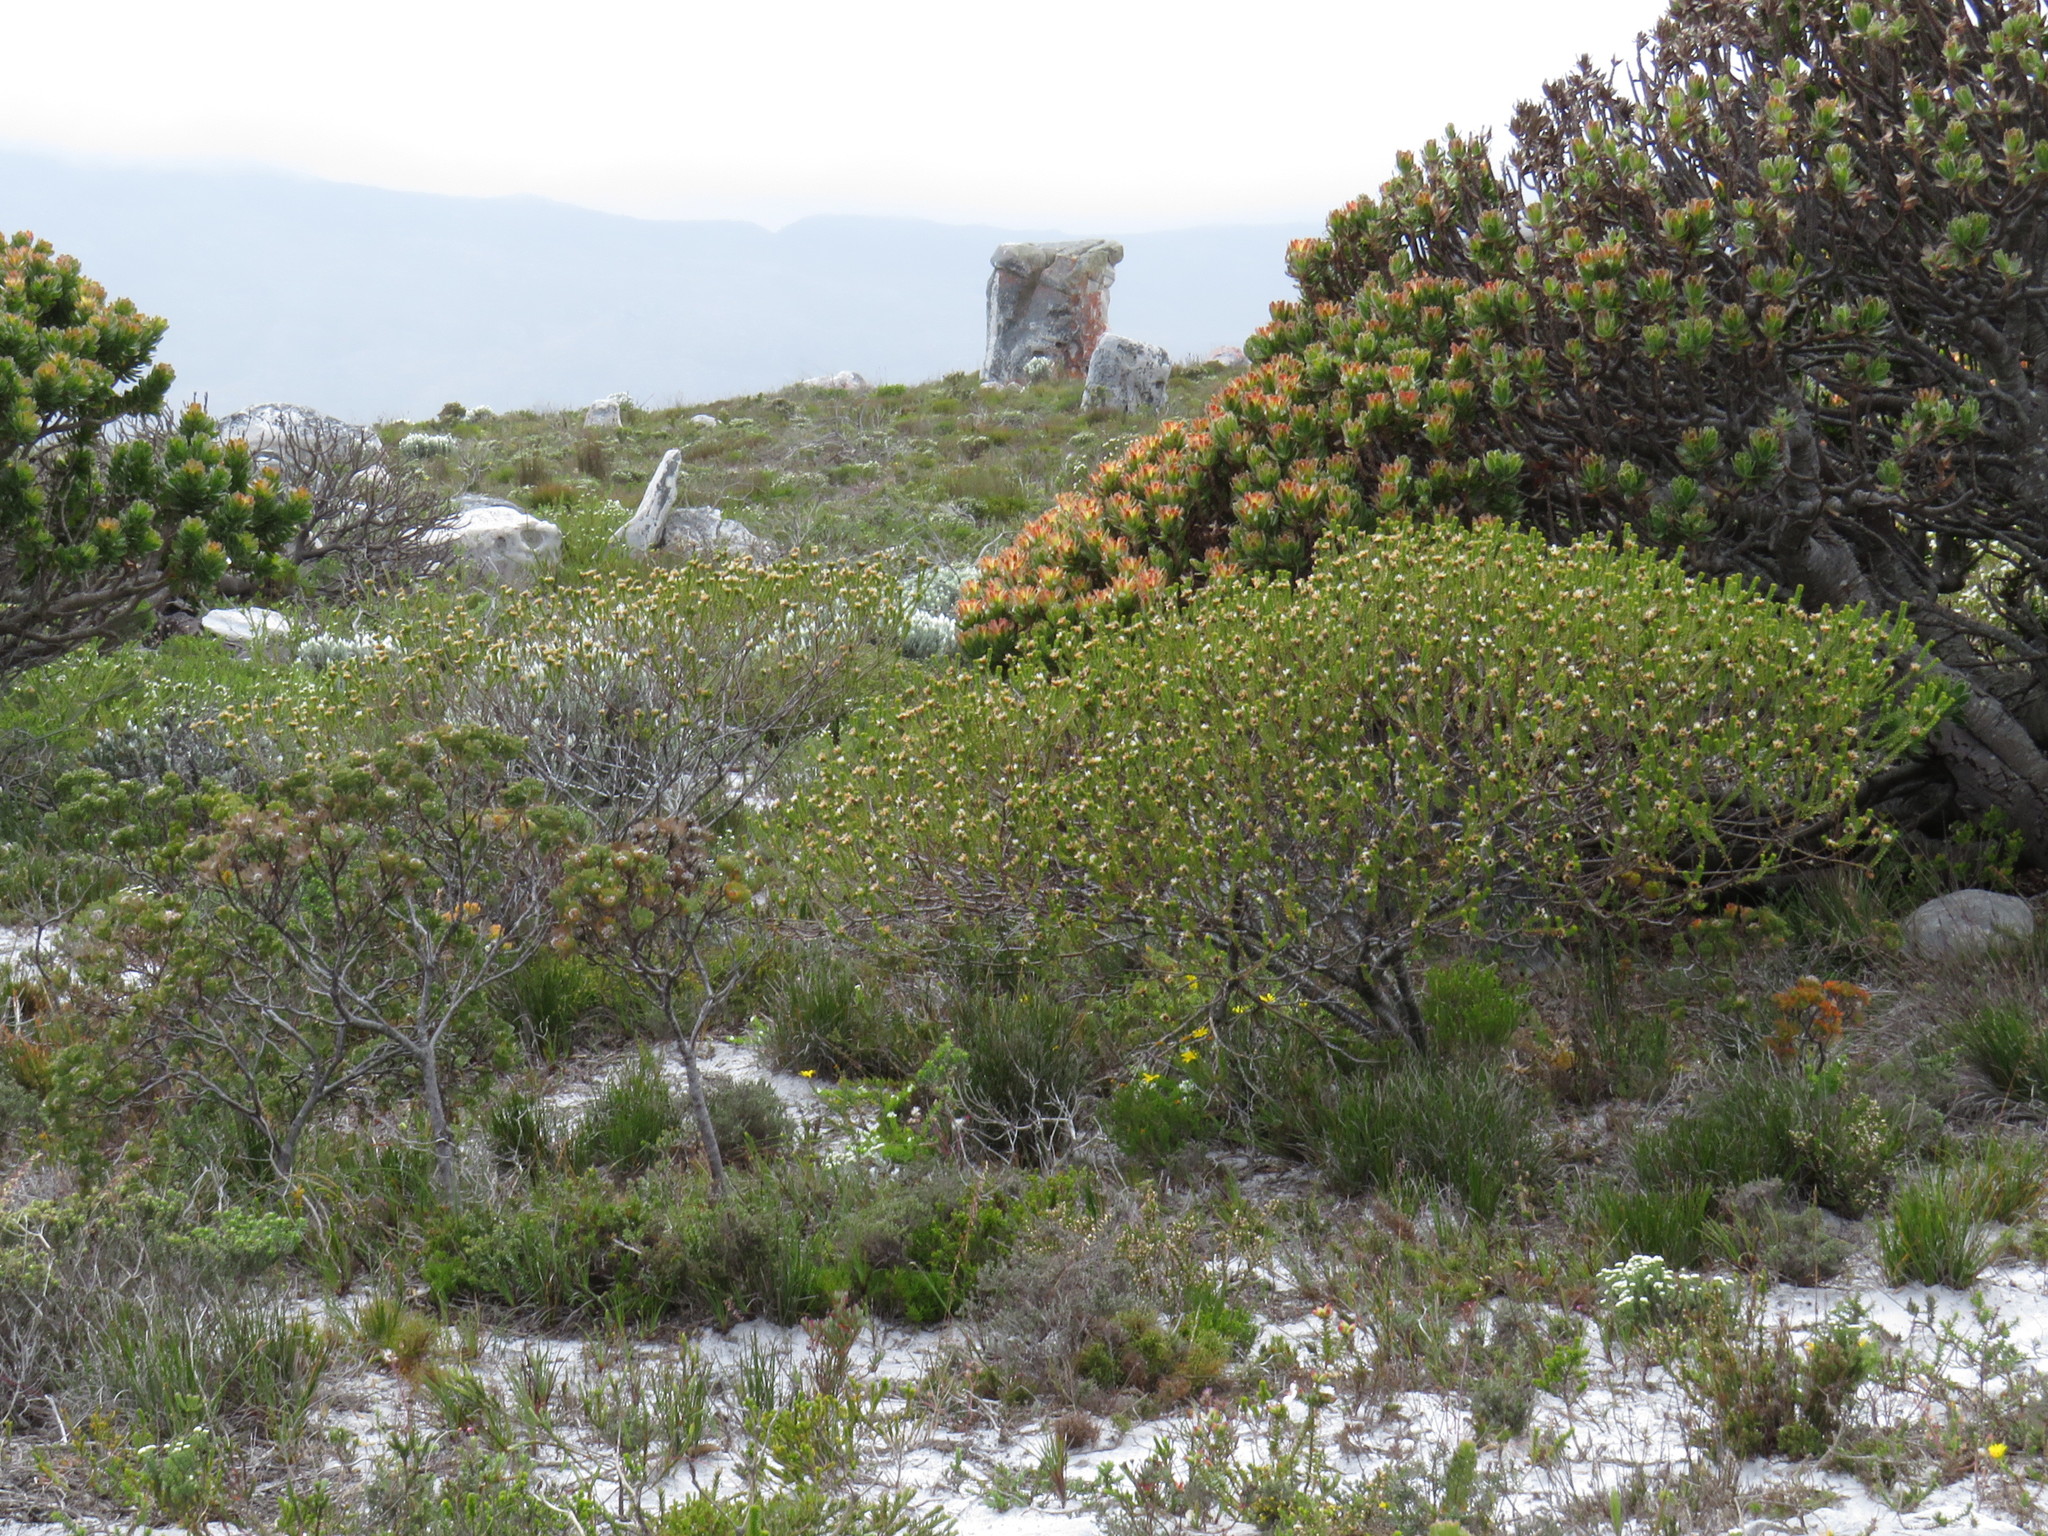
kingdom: Plantae
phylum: Tracheophyta
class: Magnoliopsida
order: Bruniales
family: Bruniaceae
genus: Staavia
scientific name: Staavia dodii
